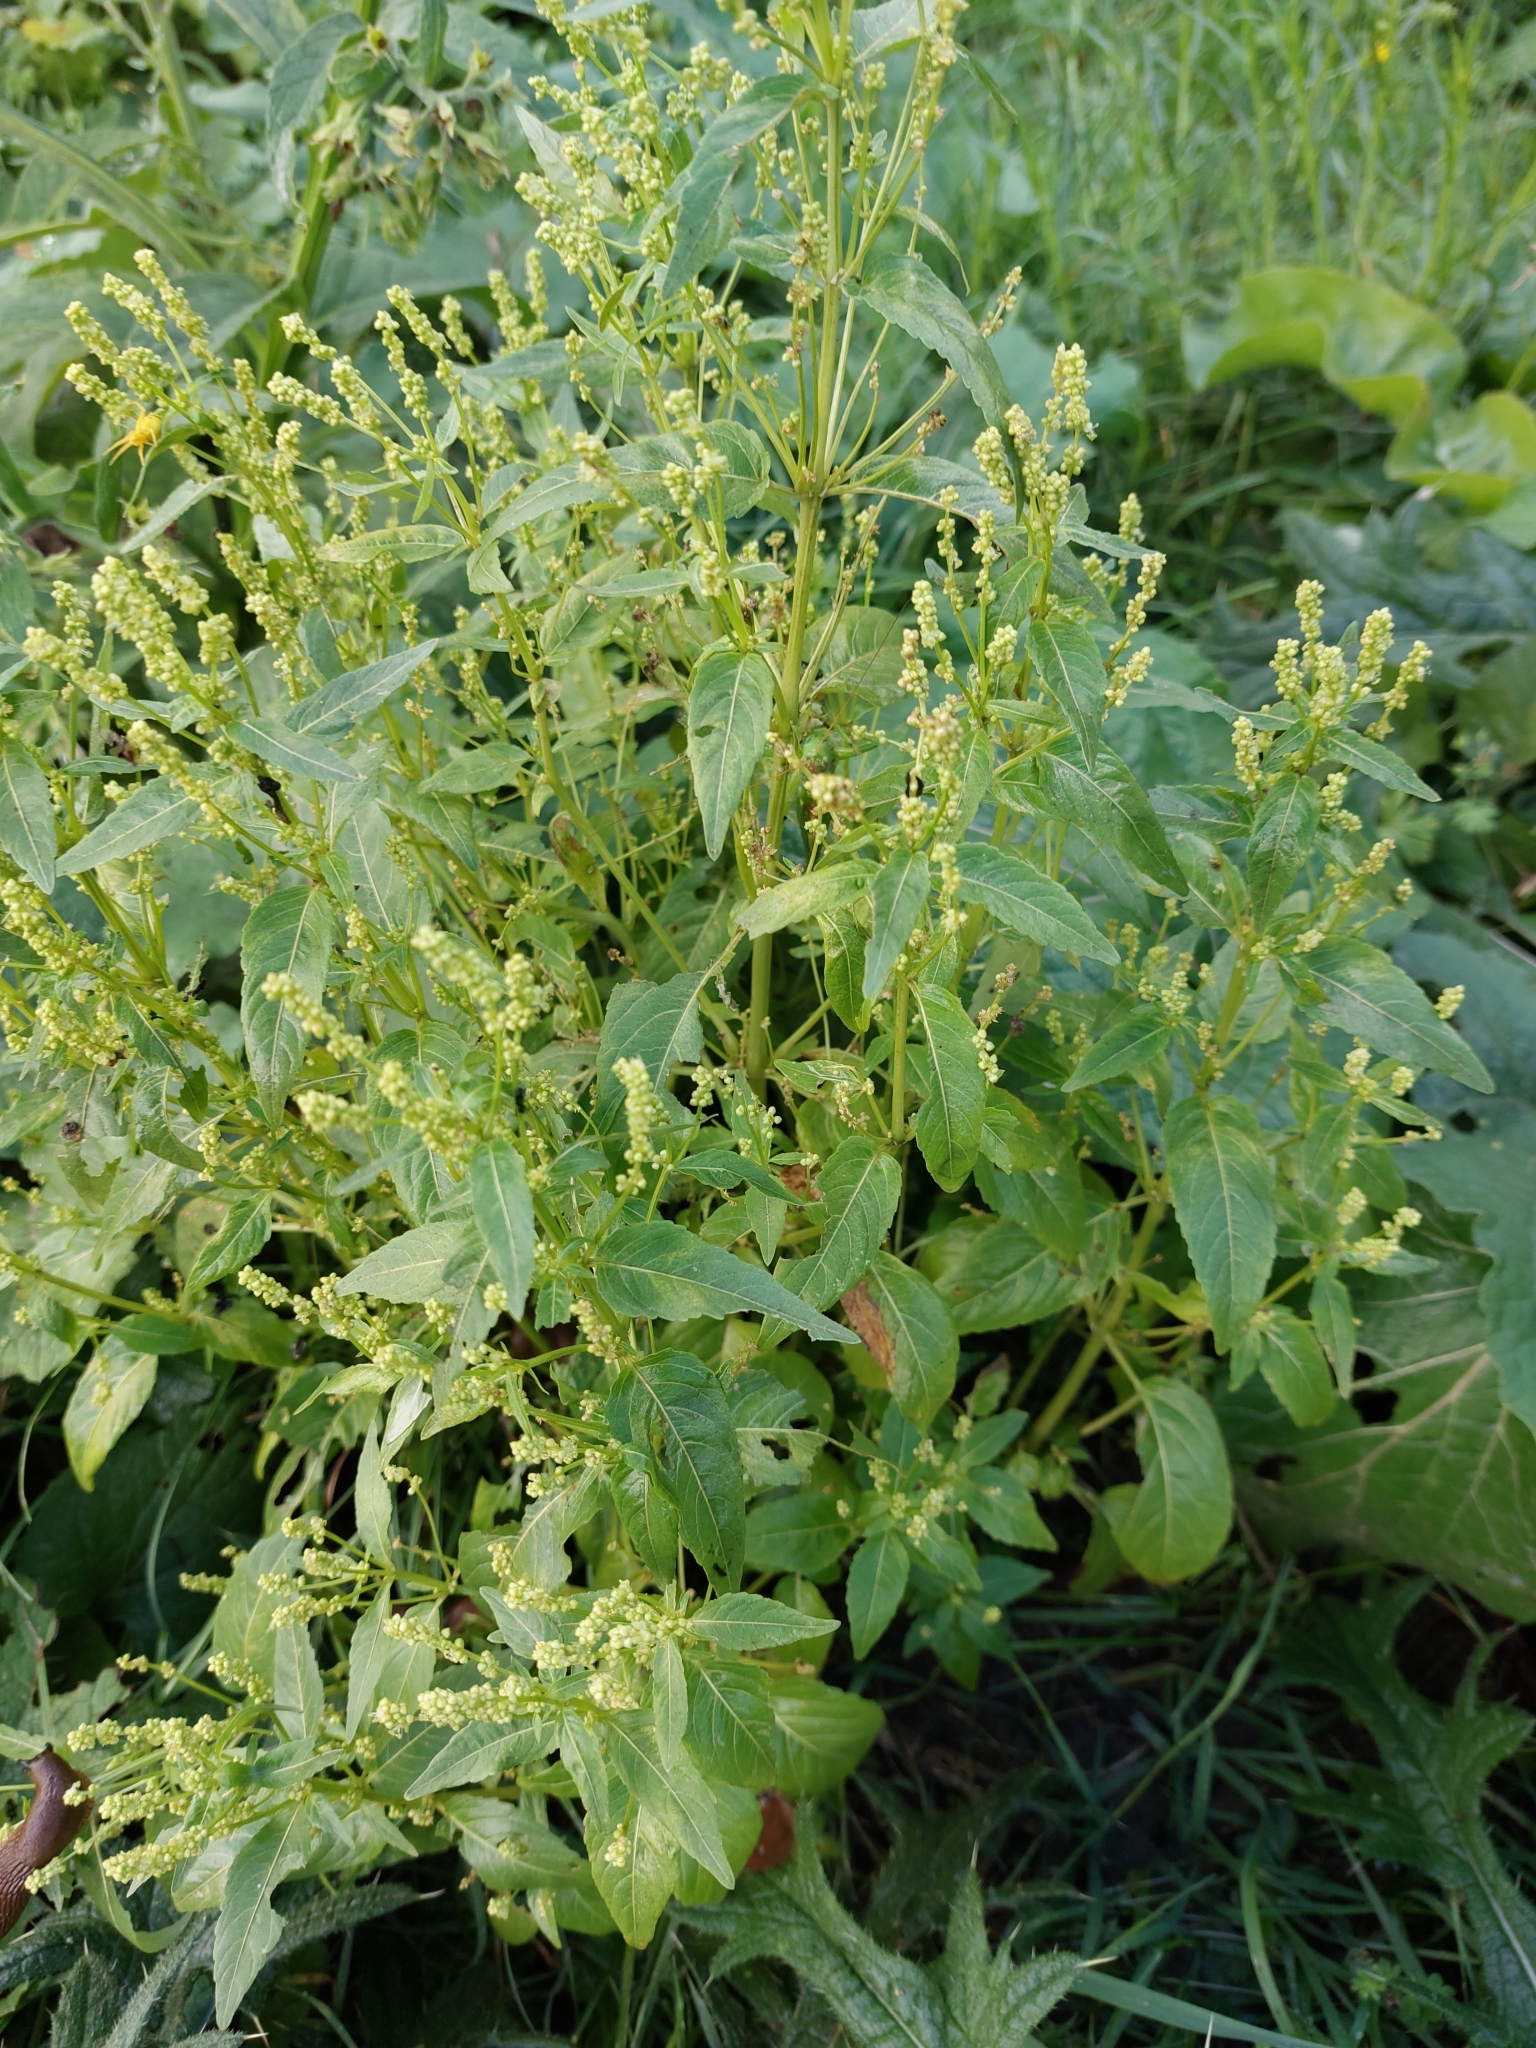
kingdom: Plantae
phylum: Tracheophyta
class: Magnoliopsida
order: Malpighiales
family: Euphorbiaceae
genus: Mercurialis
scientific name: Mercurialis annua
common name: Annual mercury
